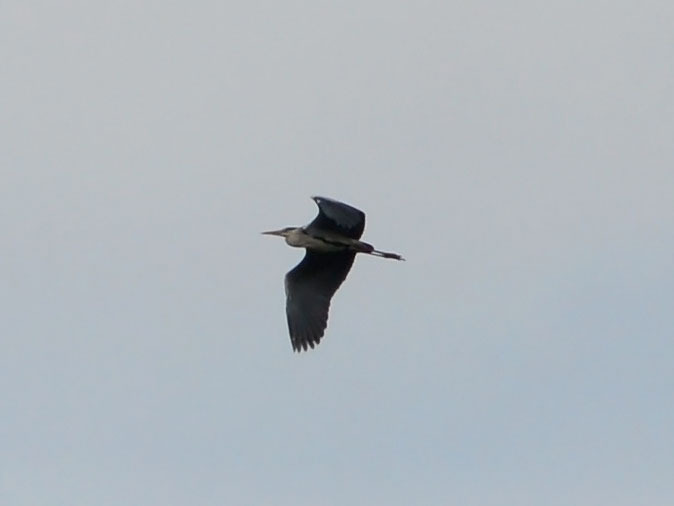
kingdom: Animalia
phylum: Chordata
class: Aves
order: Pelecaniformes
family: Ardeidae
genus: Ardea
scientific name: Ardea cinerea
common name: Grey heron
